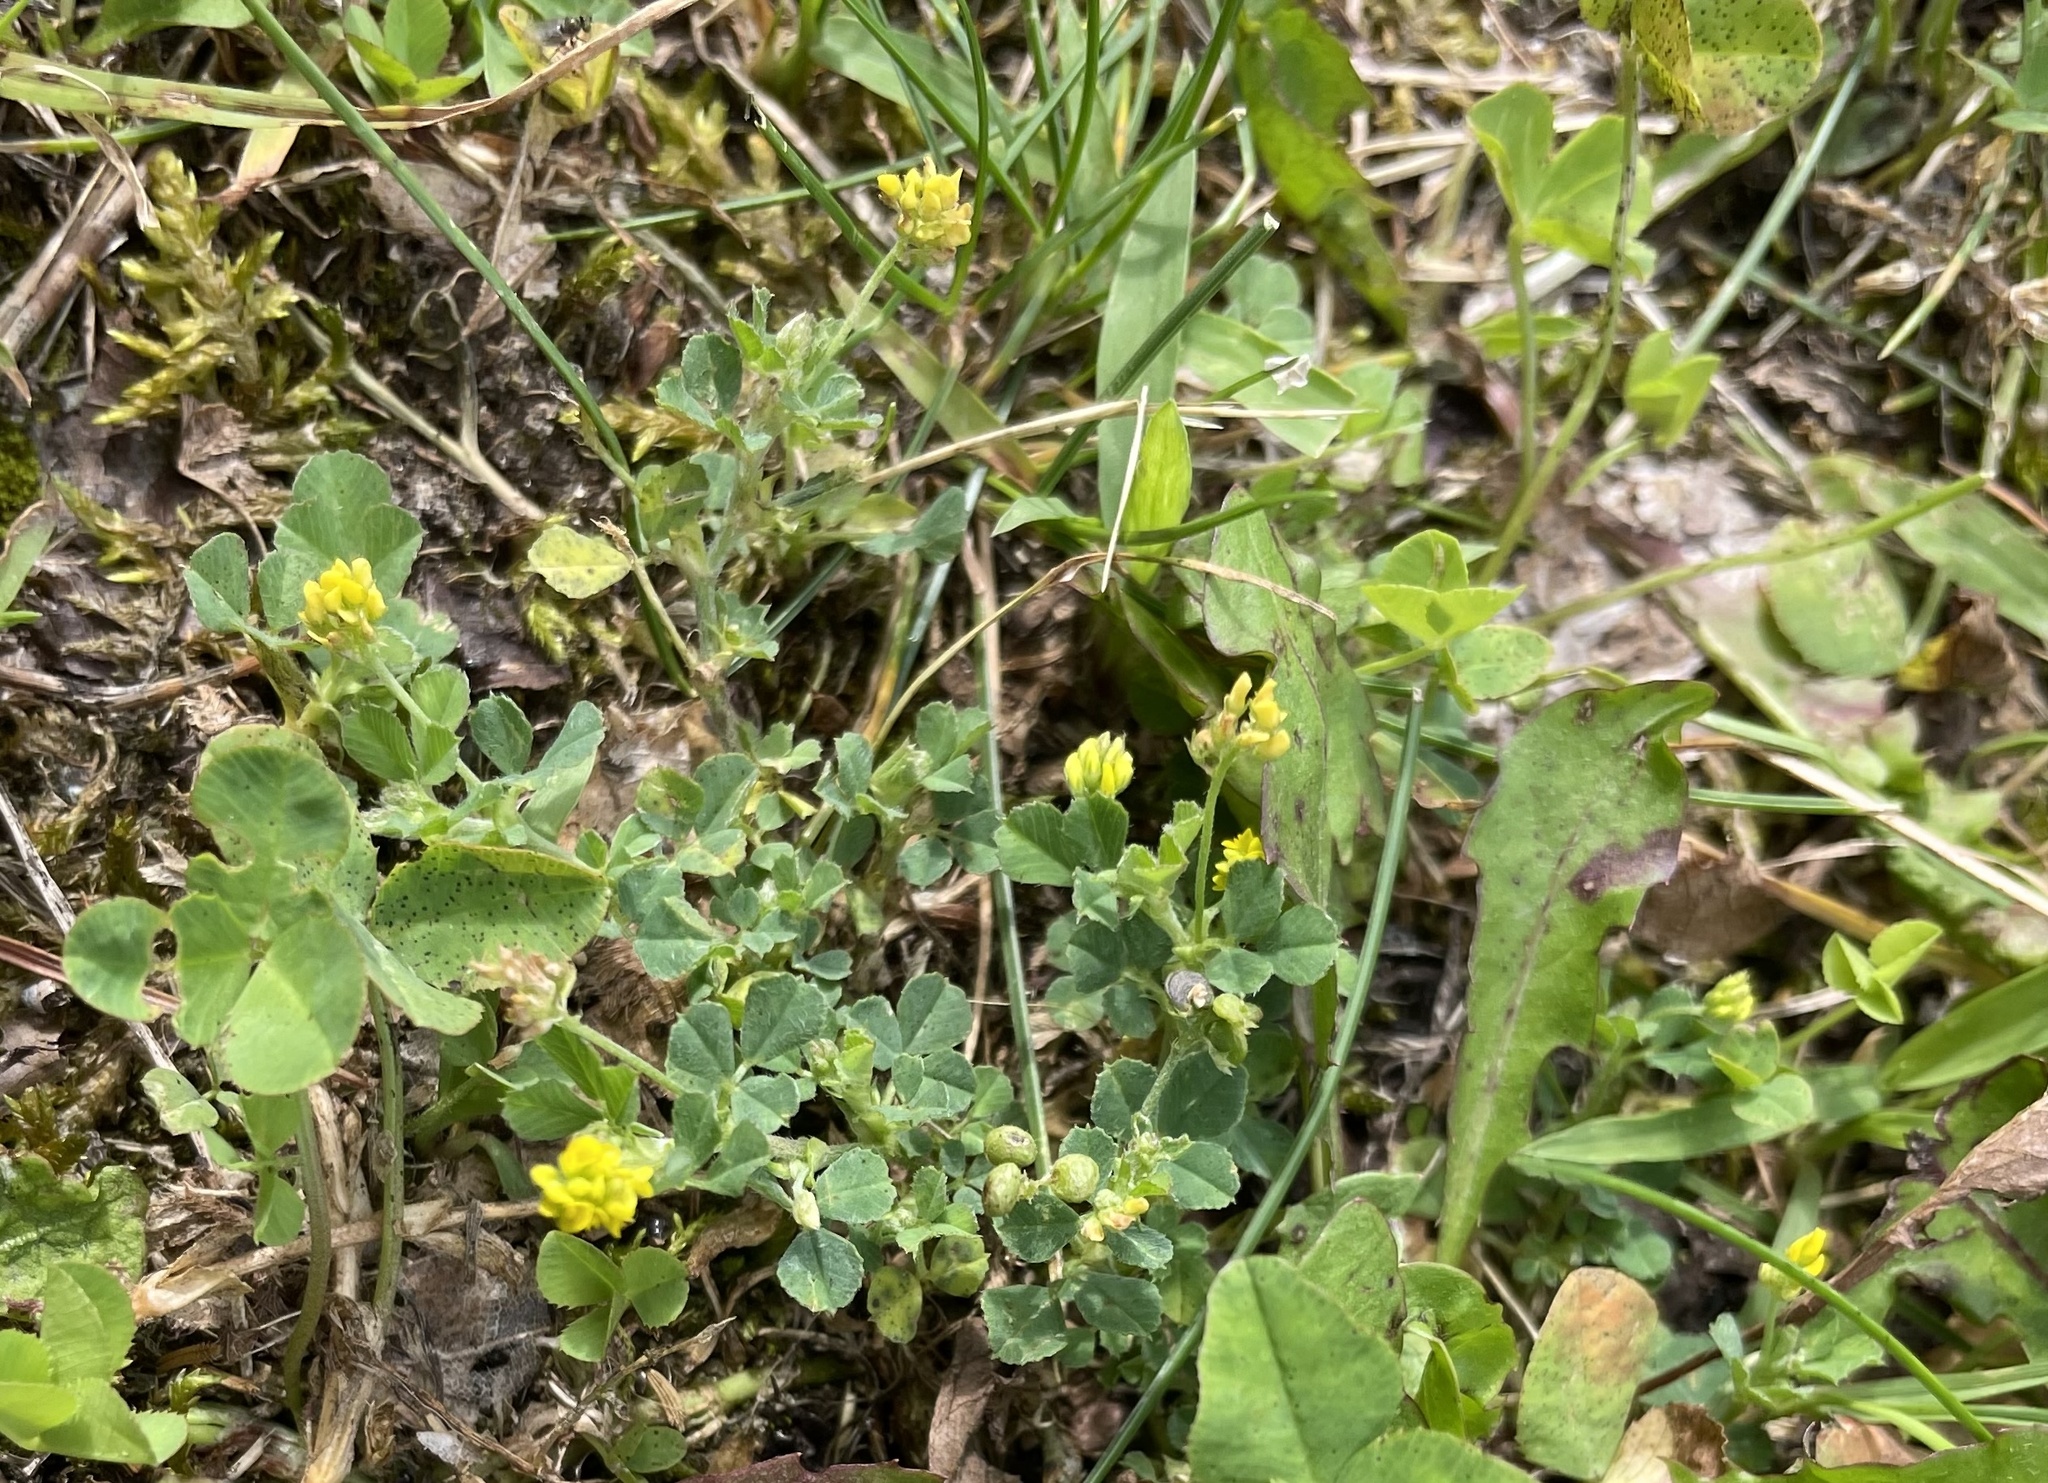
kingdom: Plantae
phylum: Tracheophyta
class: Magnoliopsida
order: Fabales
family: Fabaceae
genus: Medicago
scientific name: Medicago lupulina
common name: Black medick
